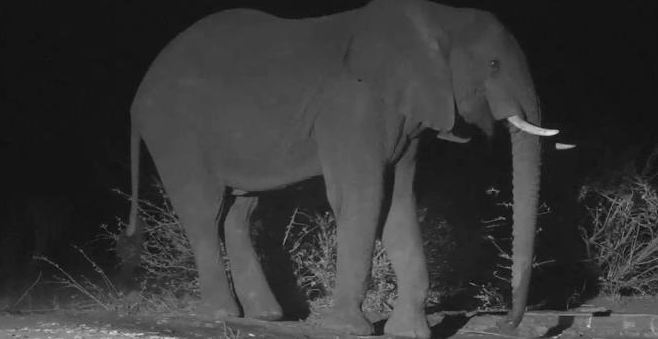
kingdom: Animalia
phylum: Chordata
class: Mammalia
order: Proboscidea
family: Elephantidae
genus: Loxodonta
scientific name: Loxodonta africana
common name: African elephant
